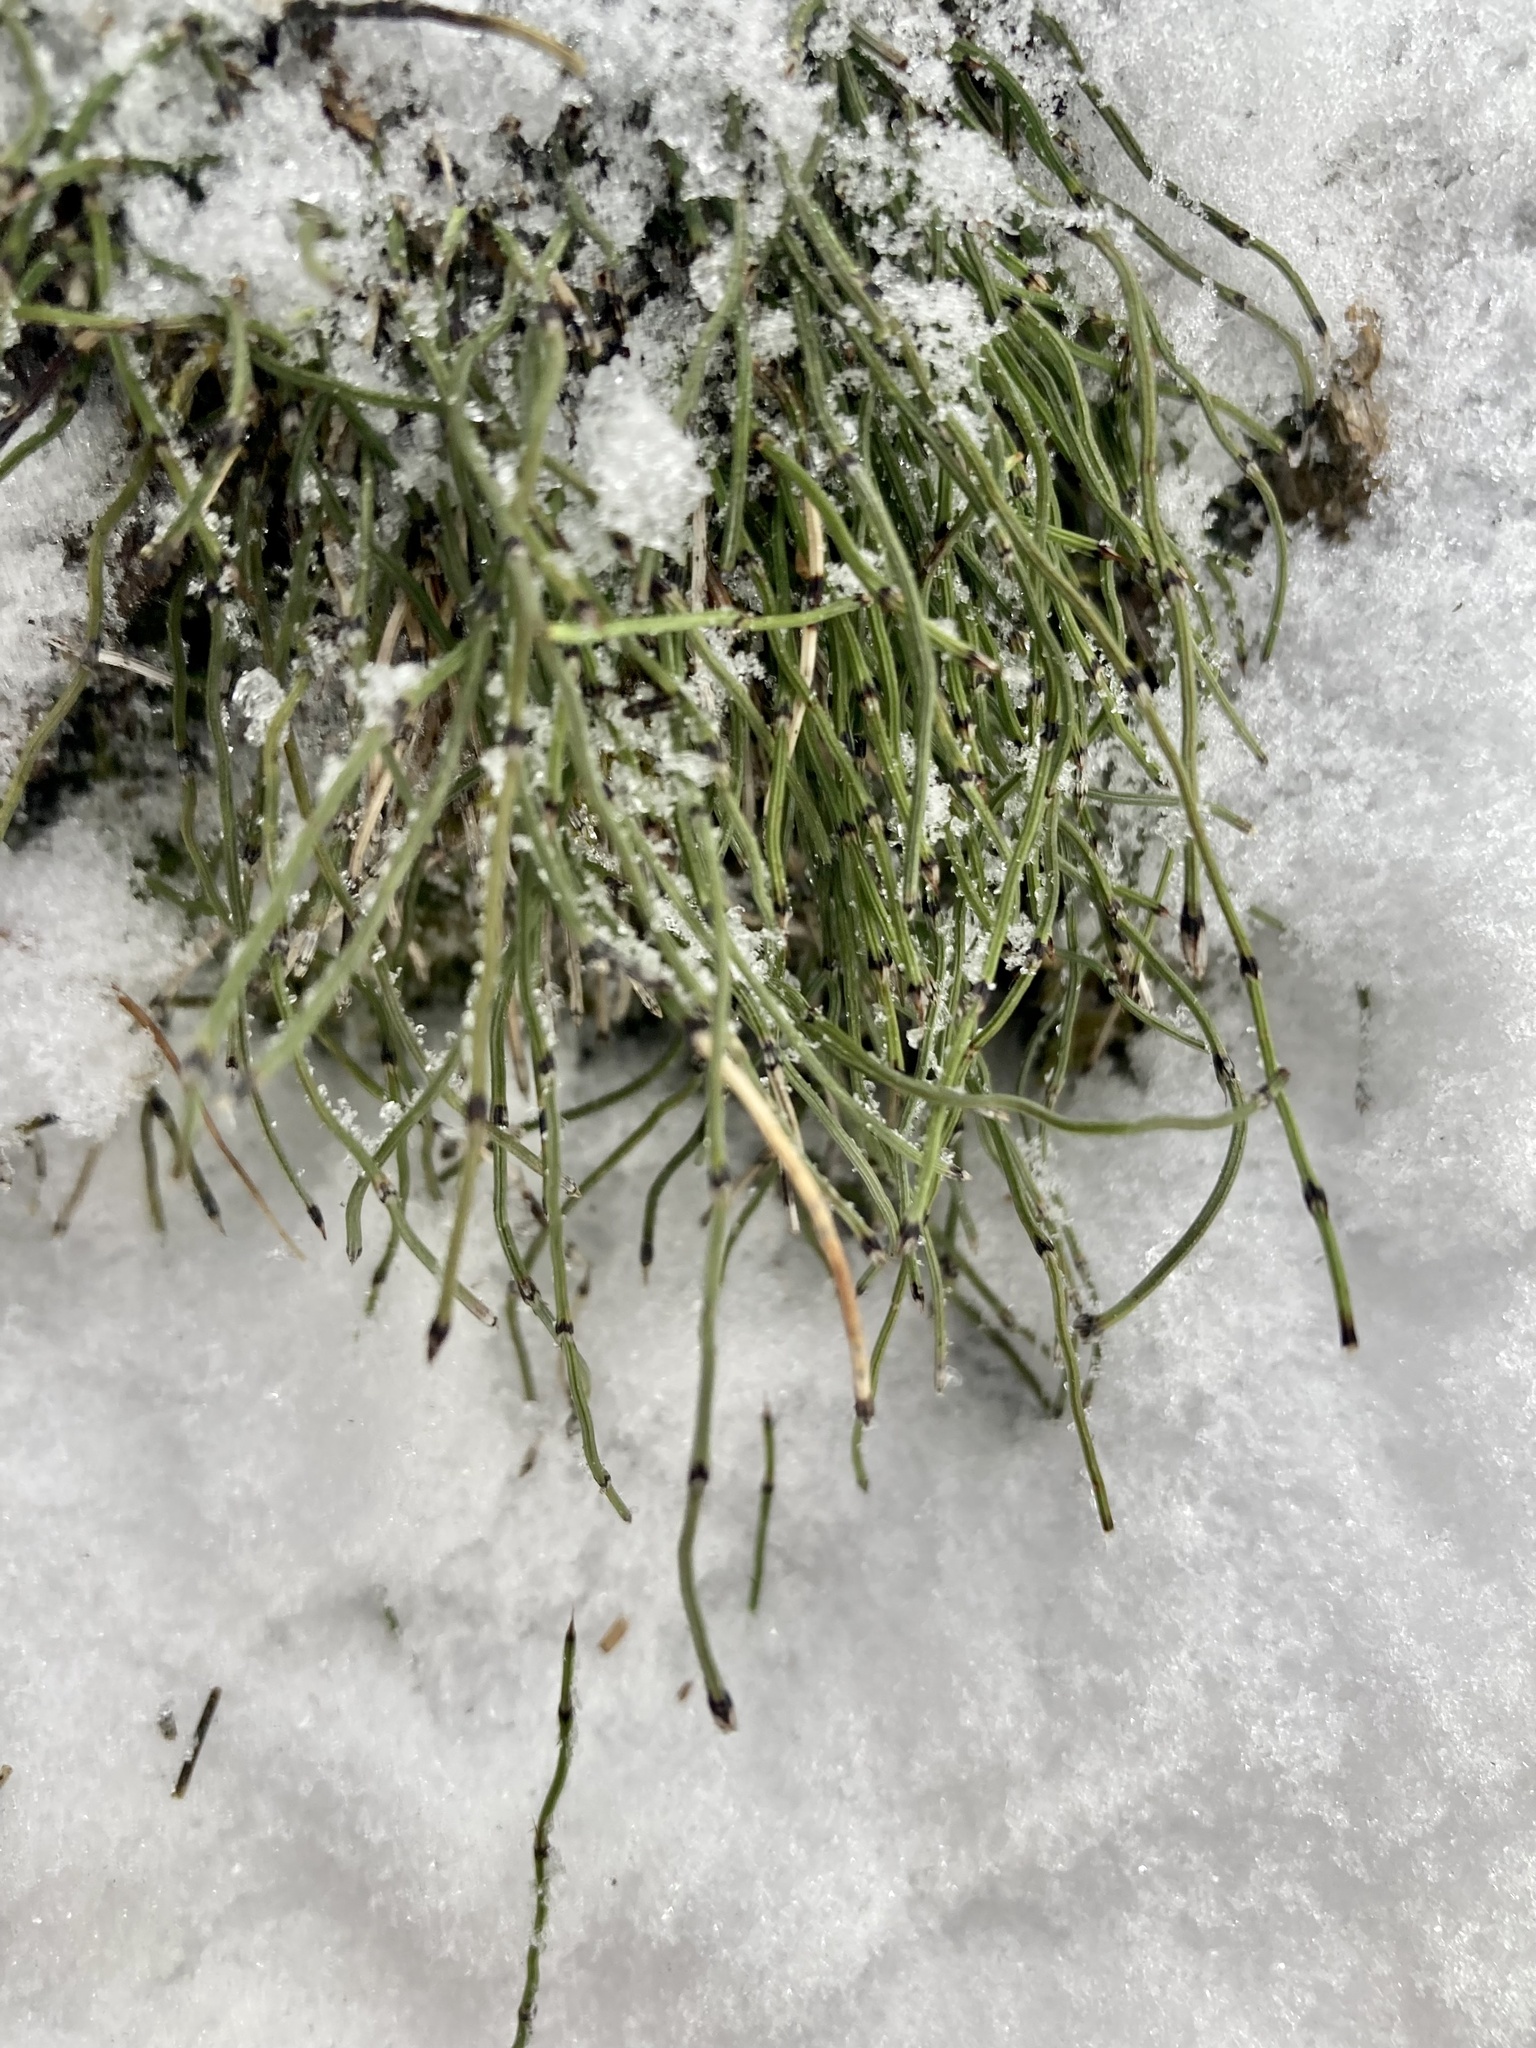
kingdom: Plantae
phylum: Tracheophyta
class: Polypodiopsida
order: Equisetales
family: Equisetaceae
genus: Equisetum
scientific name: Equisetum scirpoides
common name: Delicate horsetail
